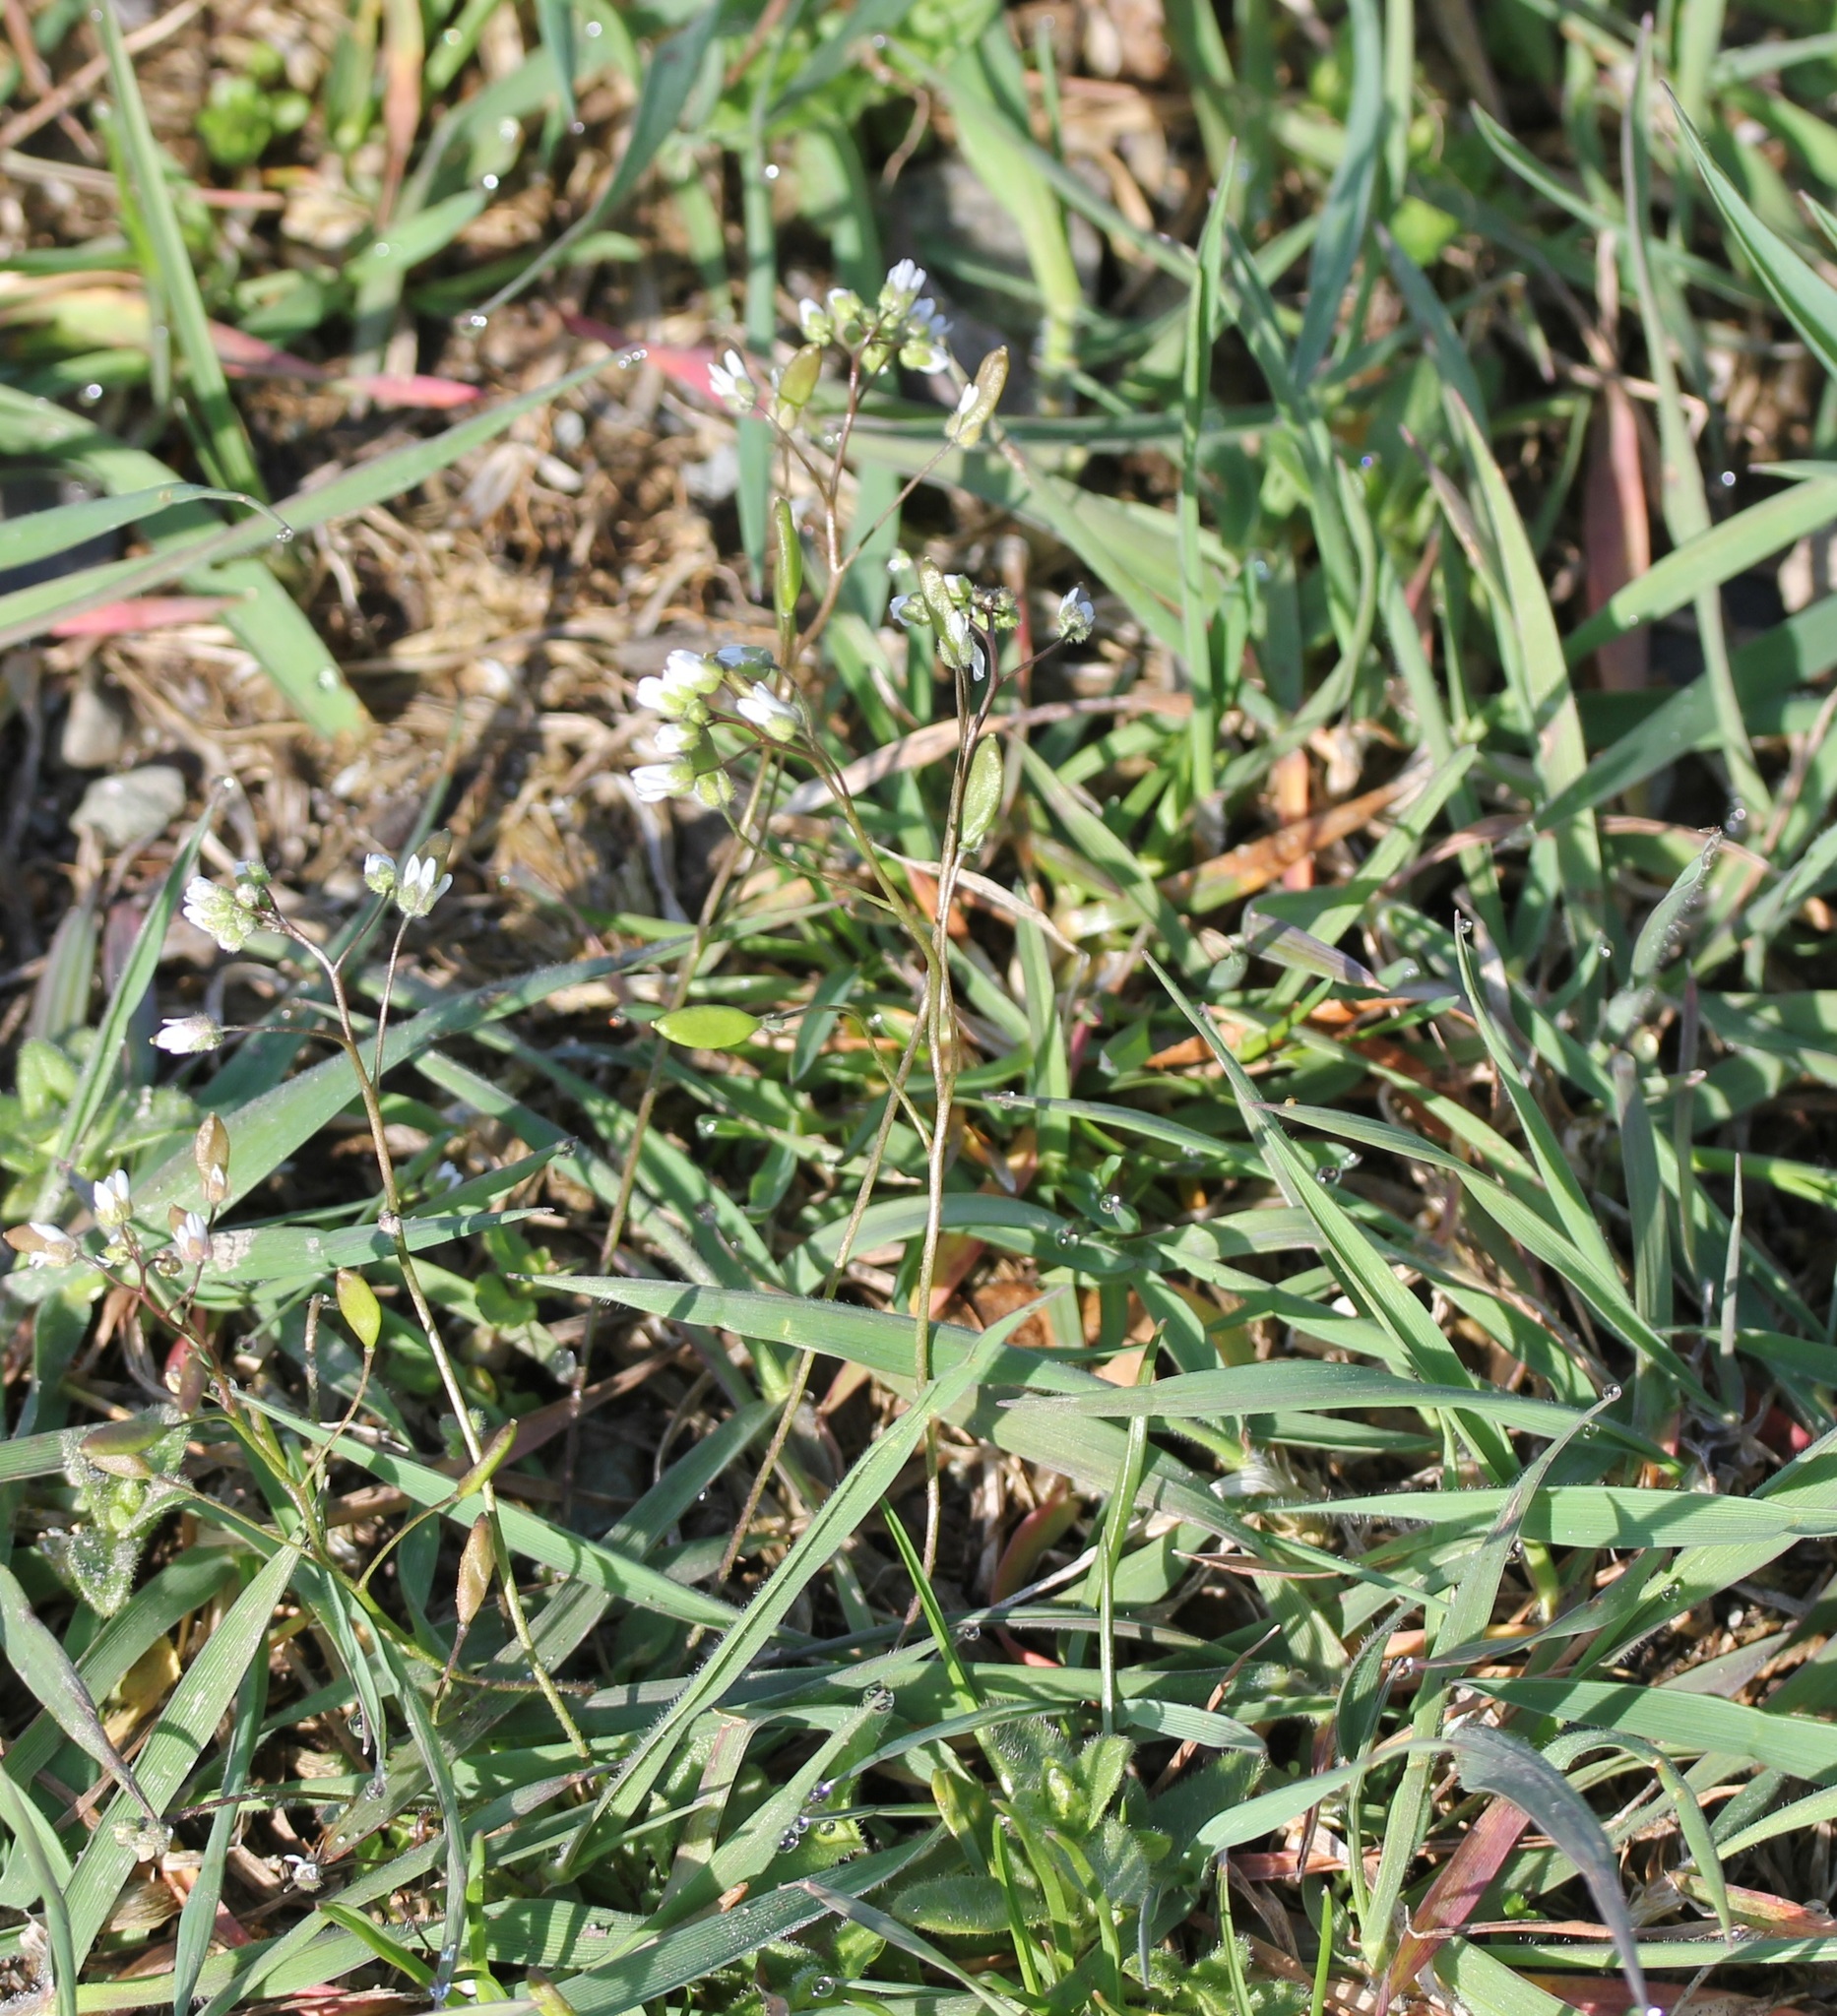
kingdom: Plantae
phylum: Tracheophyta
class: Magnoliopsida
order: Brassicales
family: Brassicaceae
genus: Draba
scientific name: Draba verna
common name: Spring draba
